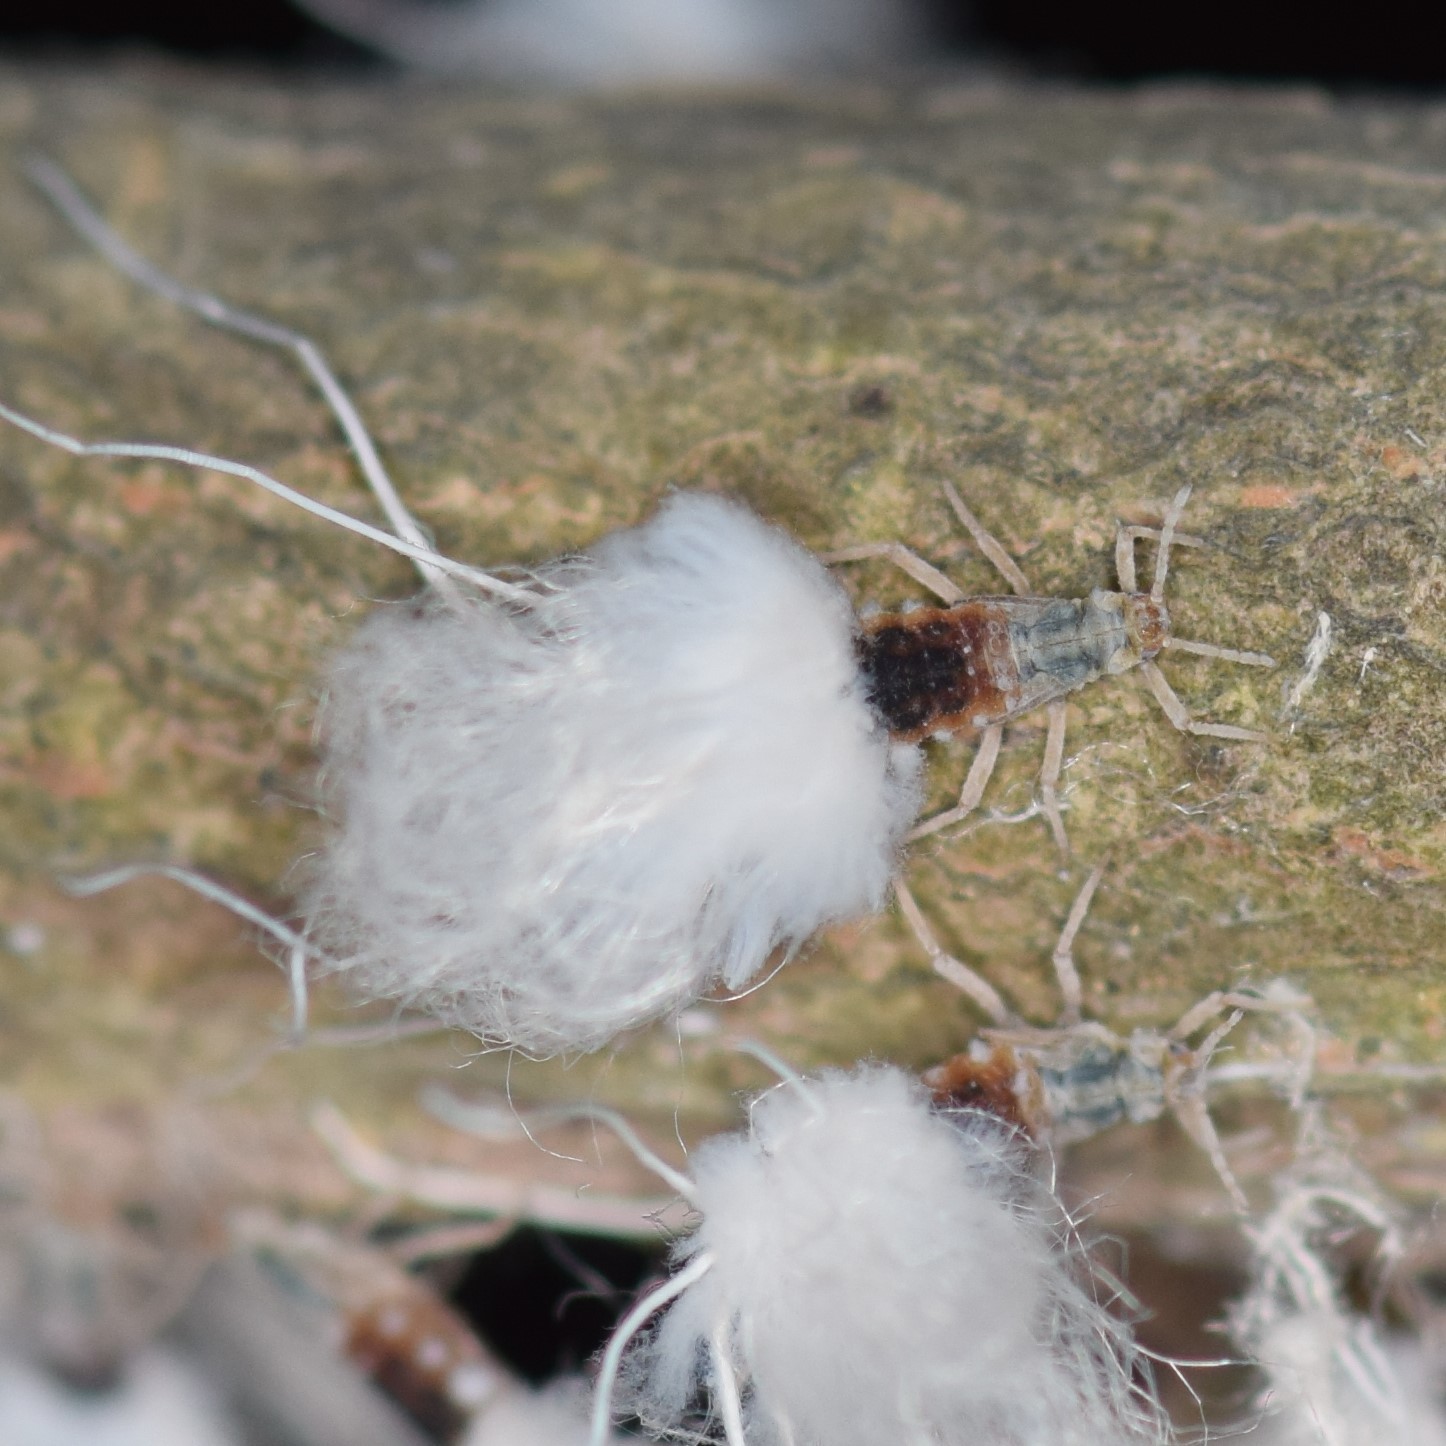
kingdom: Animalia
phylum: Arthropoda
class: Insecta
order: Hemiptera
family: Aphididae
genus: Grylloprociphilus
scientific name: Grylloprociphilus imbricator
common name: Beech blight aphid
